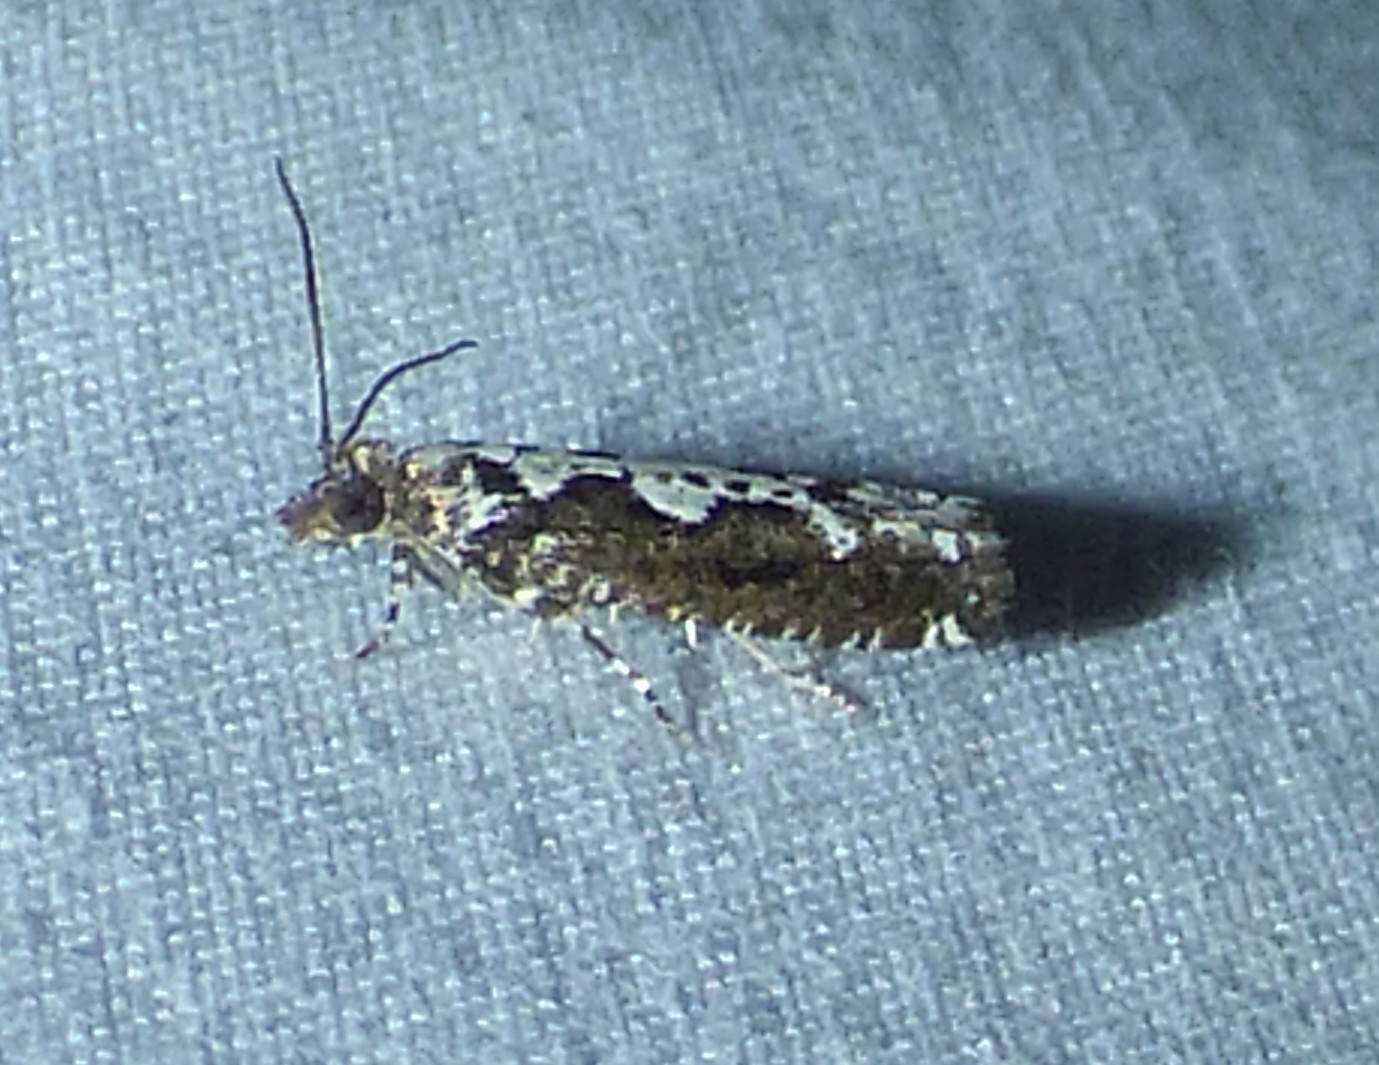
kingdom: Animalia
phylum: Arthropoda
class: Insecta
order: Lepidoptera
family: Tortricidae
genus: Chimoptesis
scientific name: Chimoptesis pennsylvaniana
